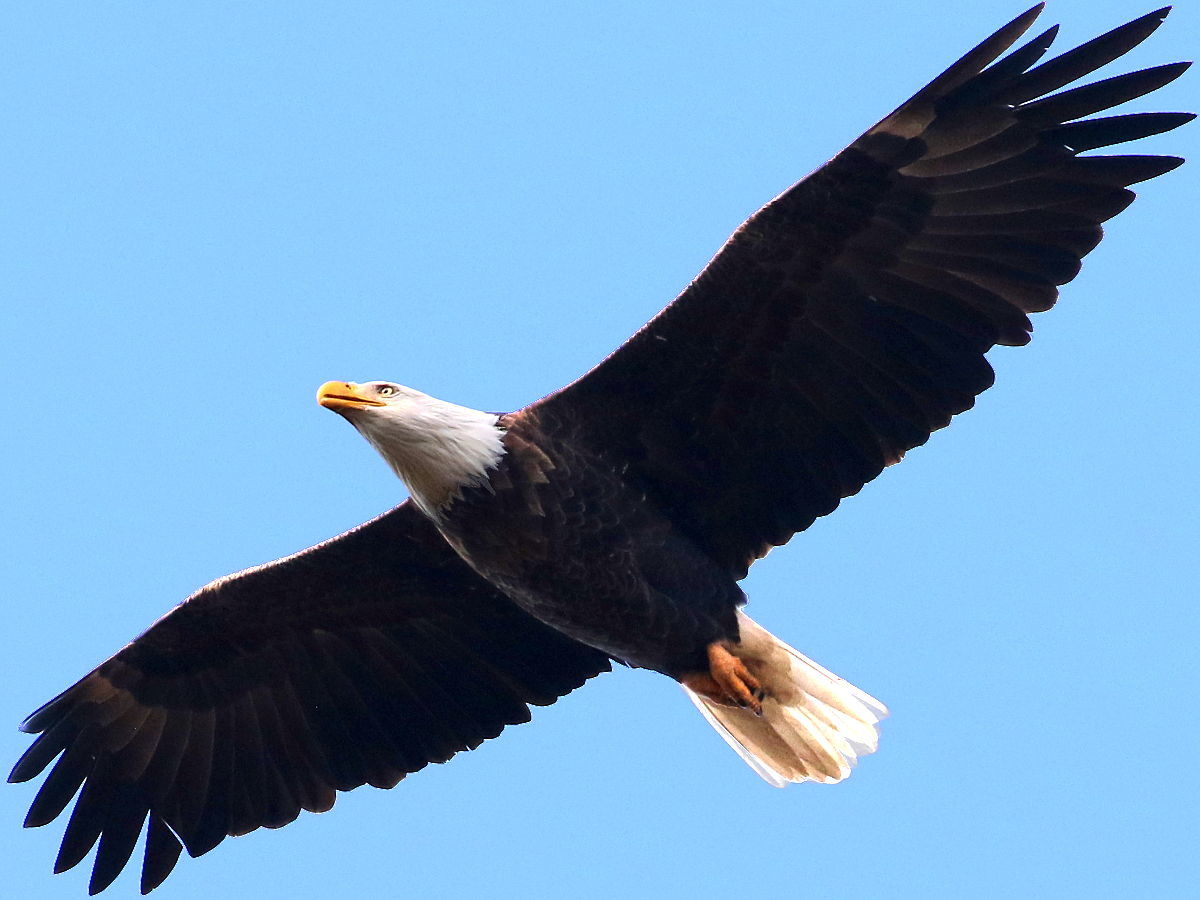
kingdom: Animalia
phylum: Chordata
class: Aves
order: Accipitriformes
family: Accipitridae
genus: Haliaeetus
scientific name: Haliaeetus leucocephalus
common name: Bald eagle
